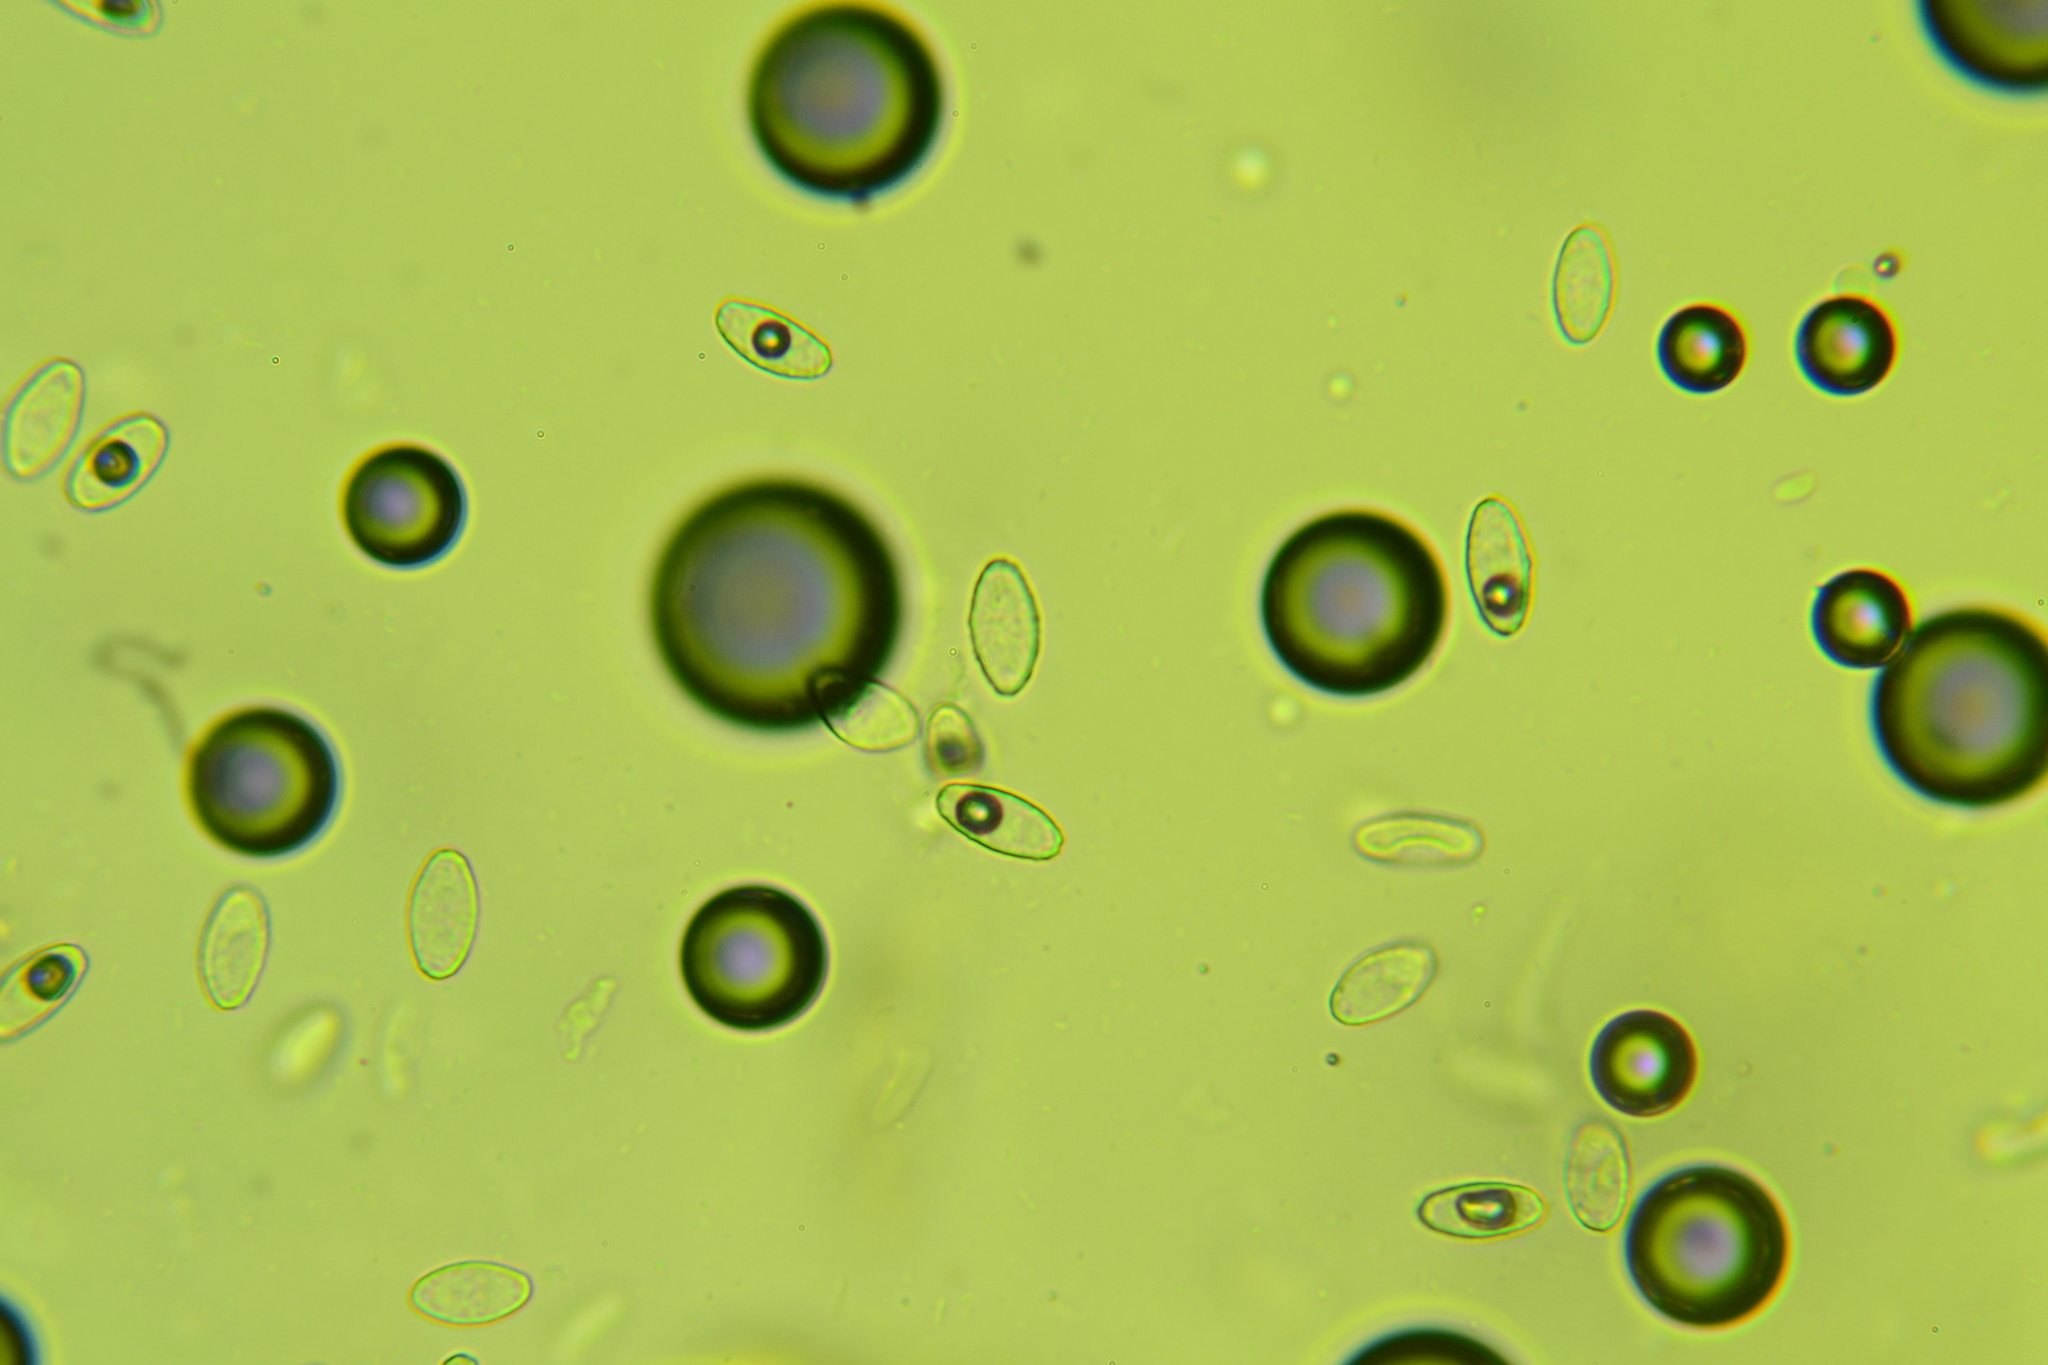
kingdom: Fungi
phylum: Ascomycota
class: Pezizomycetes
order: Pezizales
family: Pyronemataceae
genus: Sowerbyella
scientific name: Sowerbyella unicisa
